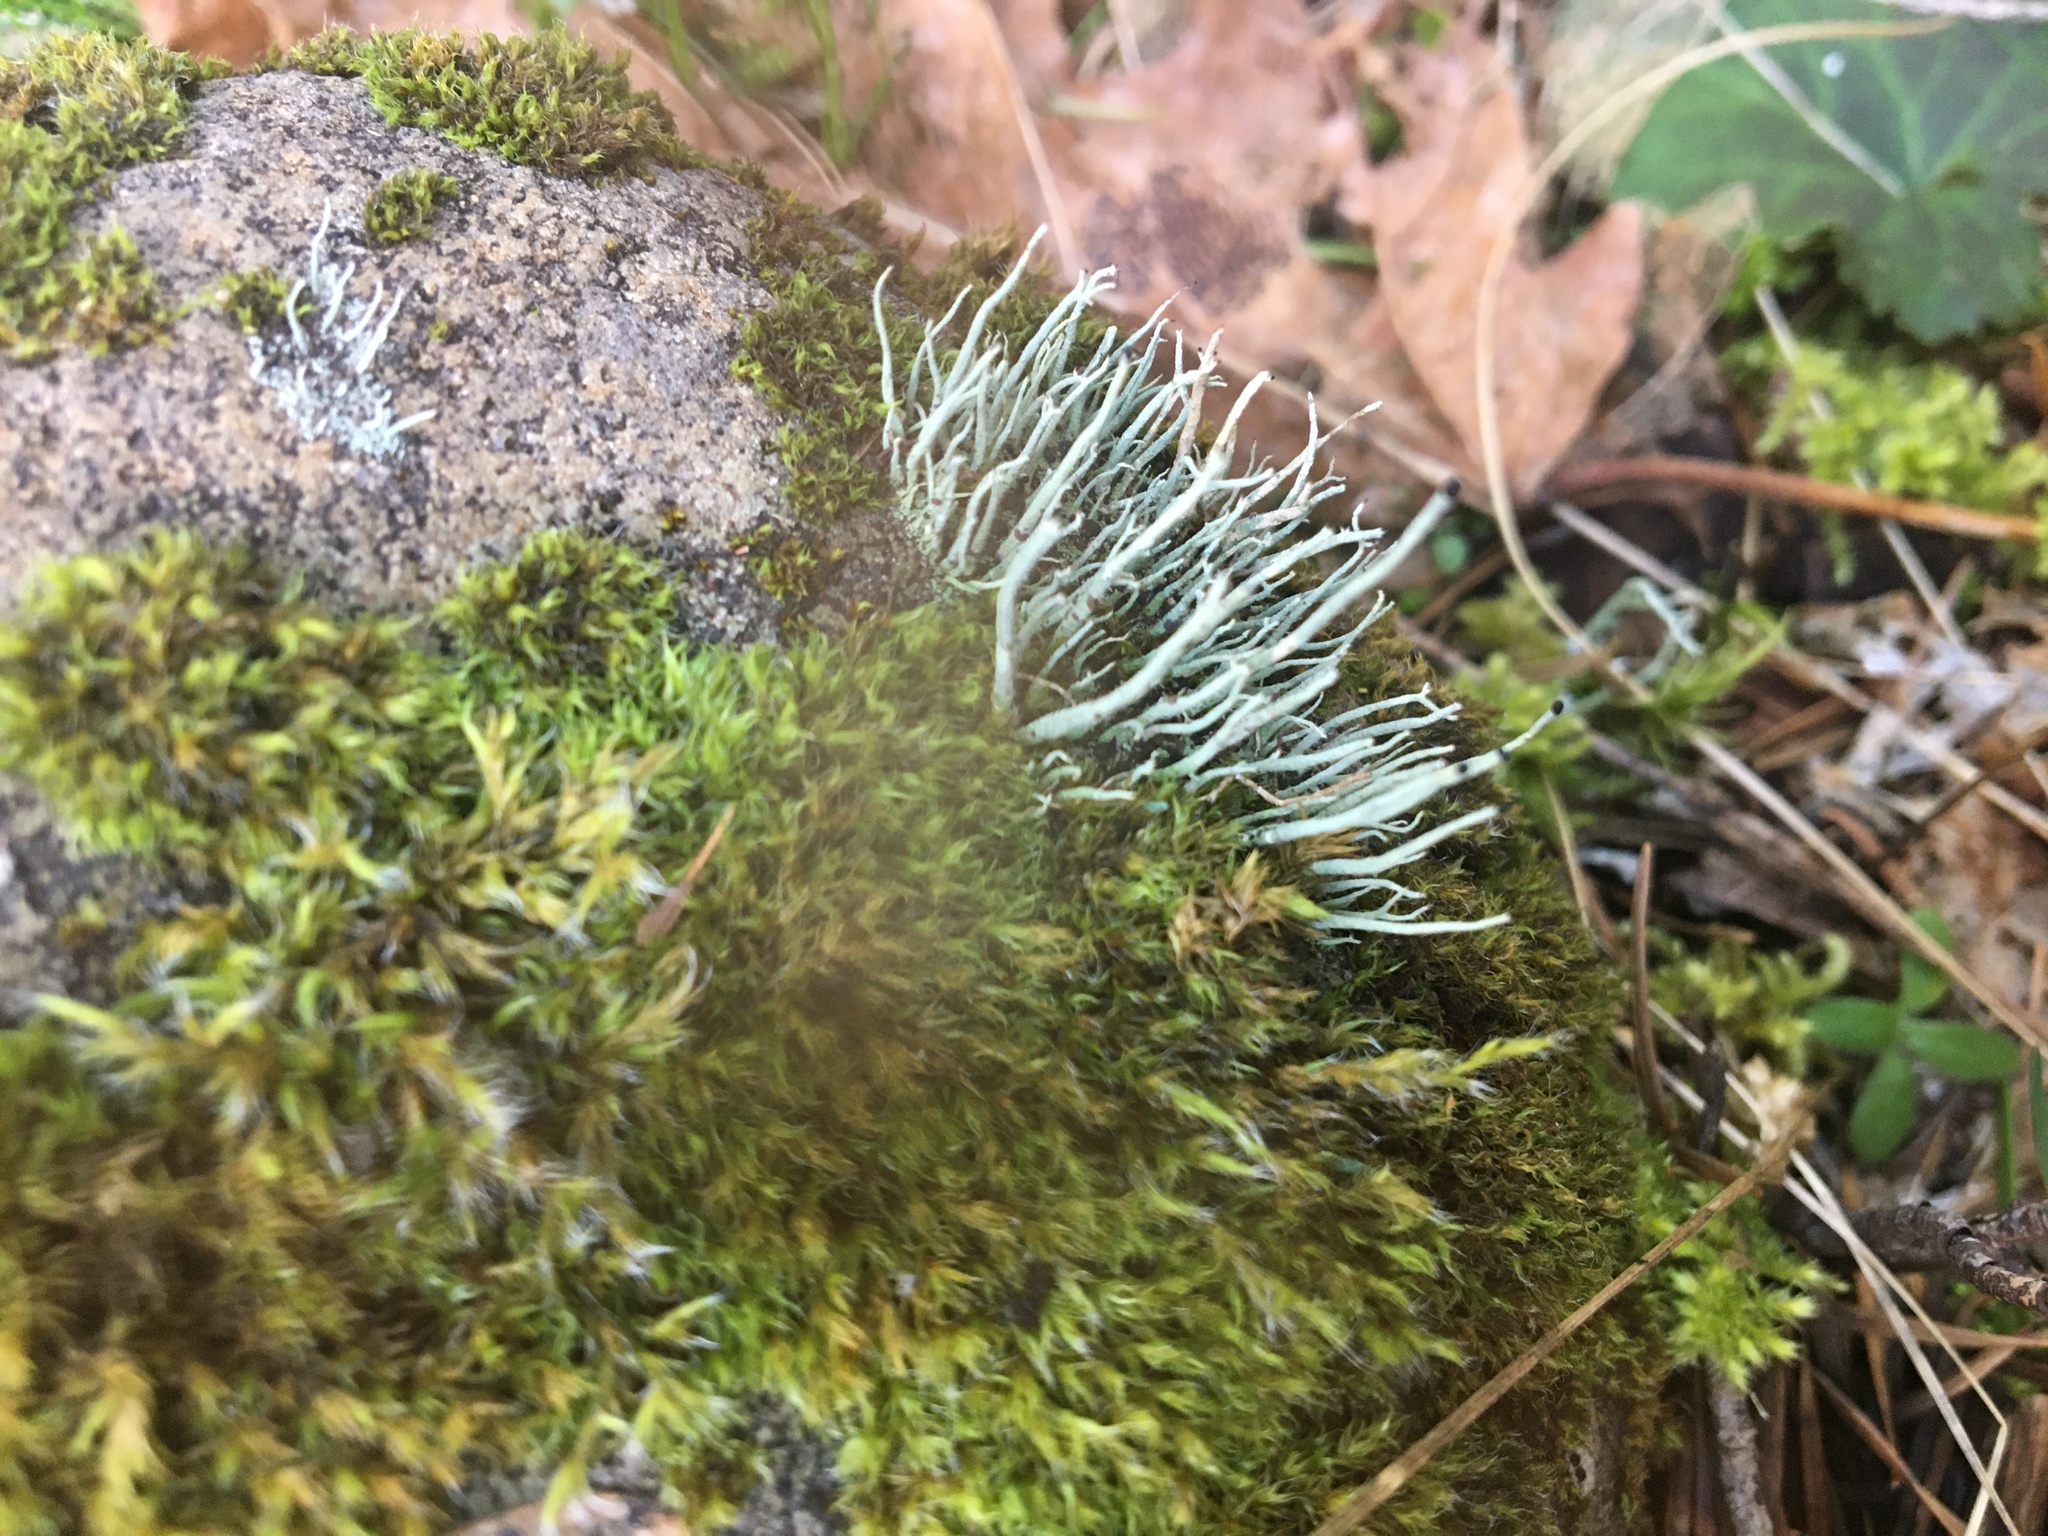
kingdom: Fungi
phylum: Ascomycota
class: Lecanoromycetes
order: Lecanorales
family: Cladoniaceae
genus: Pilophorus
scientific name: Pilophorus acicularis
